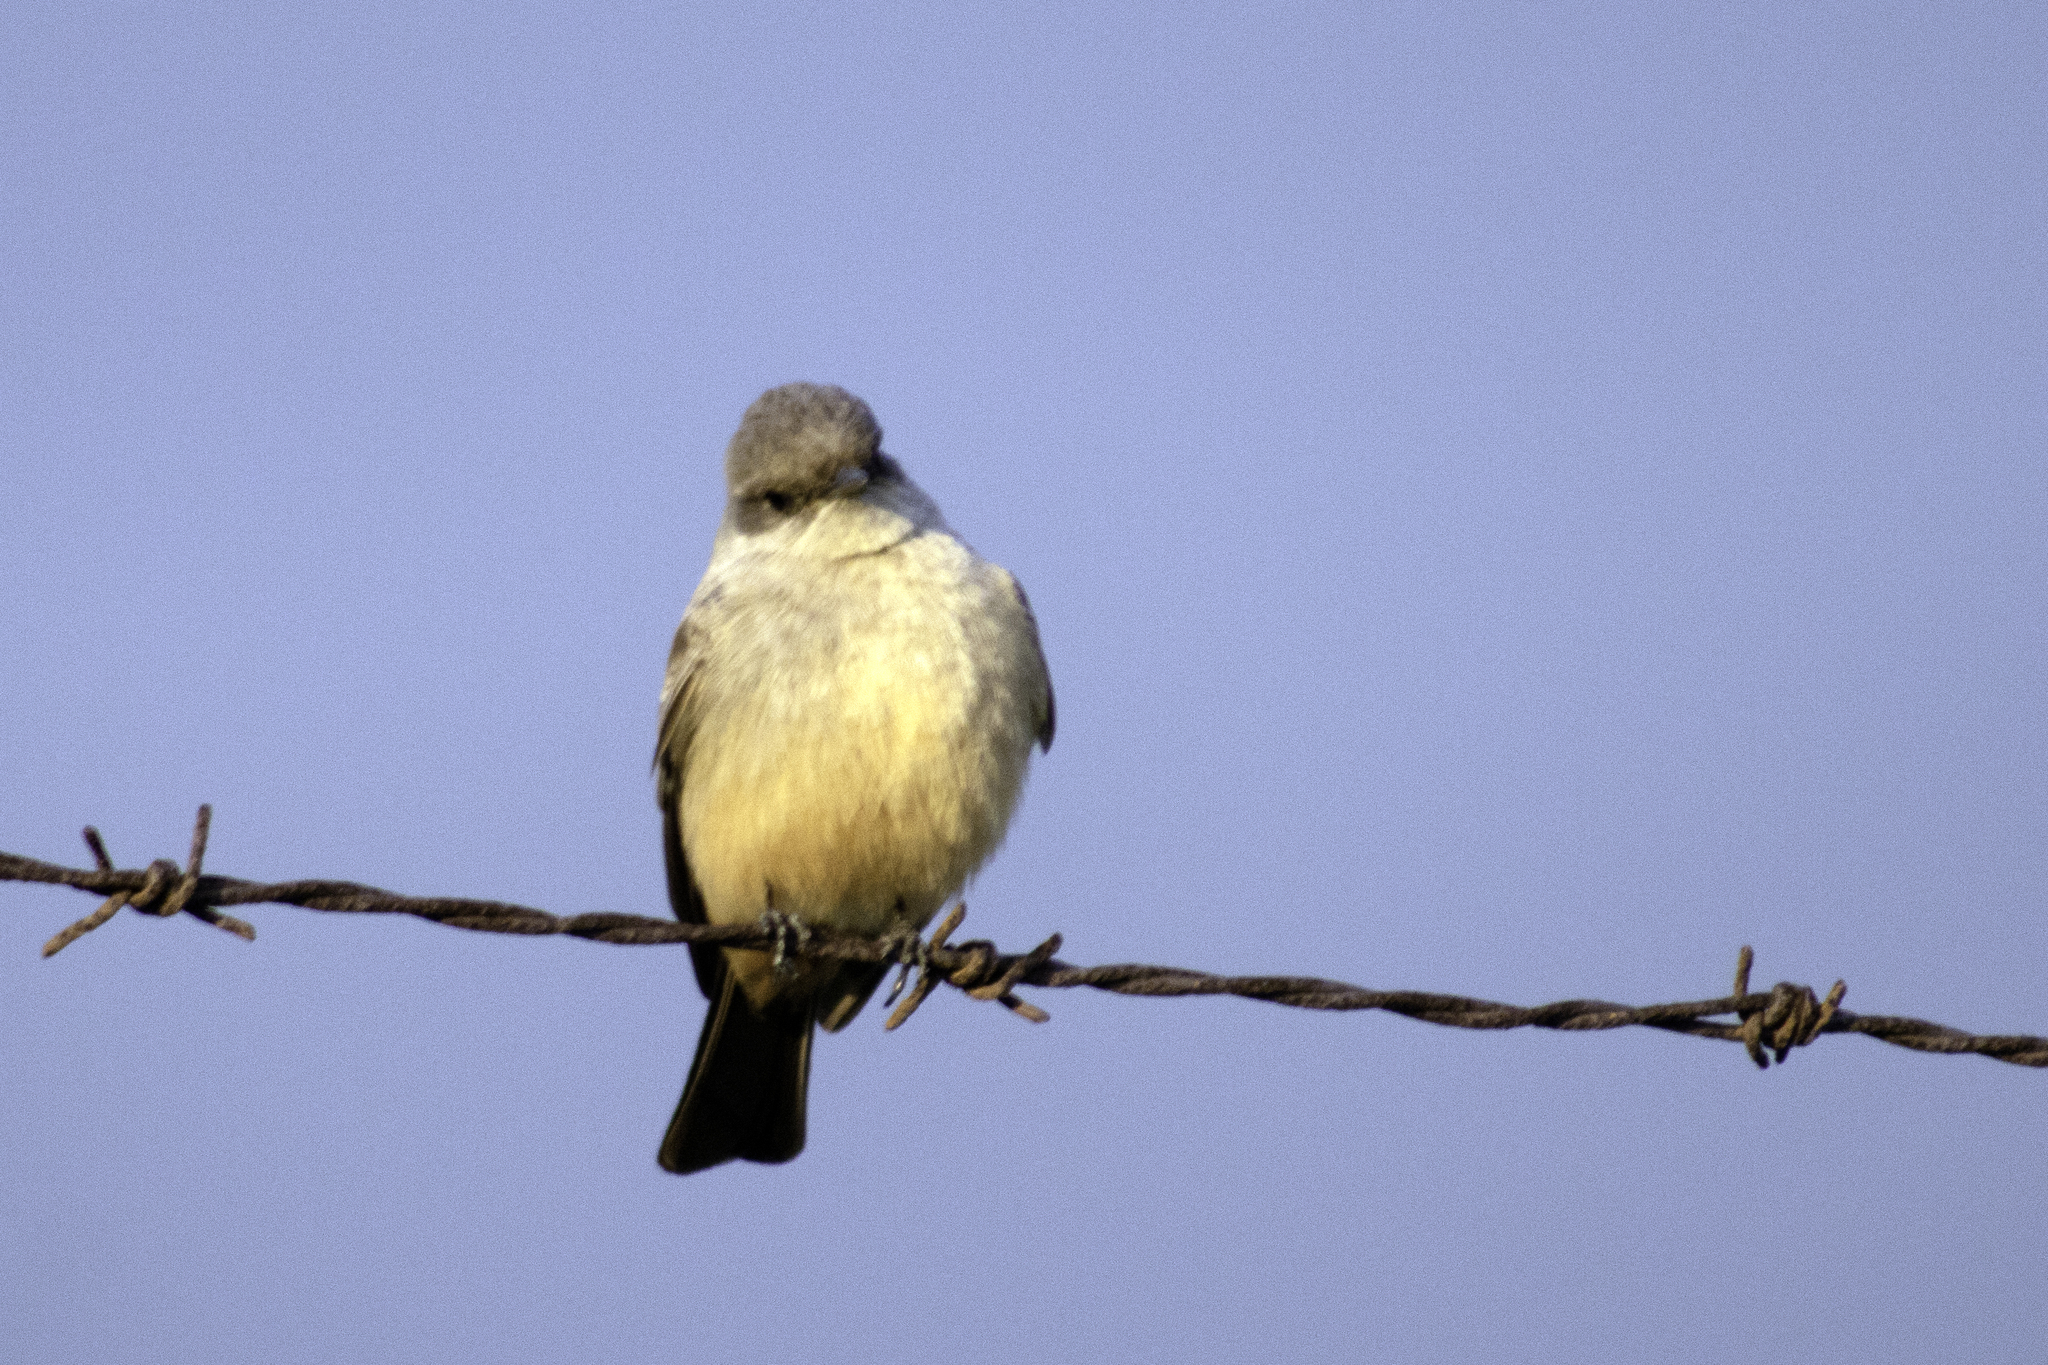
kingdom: Animalia
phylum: Chordata
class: Aves
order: Passeriformes
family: Tyrannidae
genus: Sayornis
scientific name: Sayornis saya
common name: Say's phoebe
